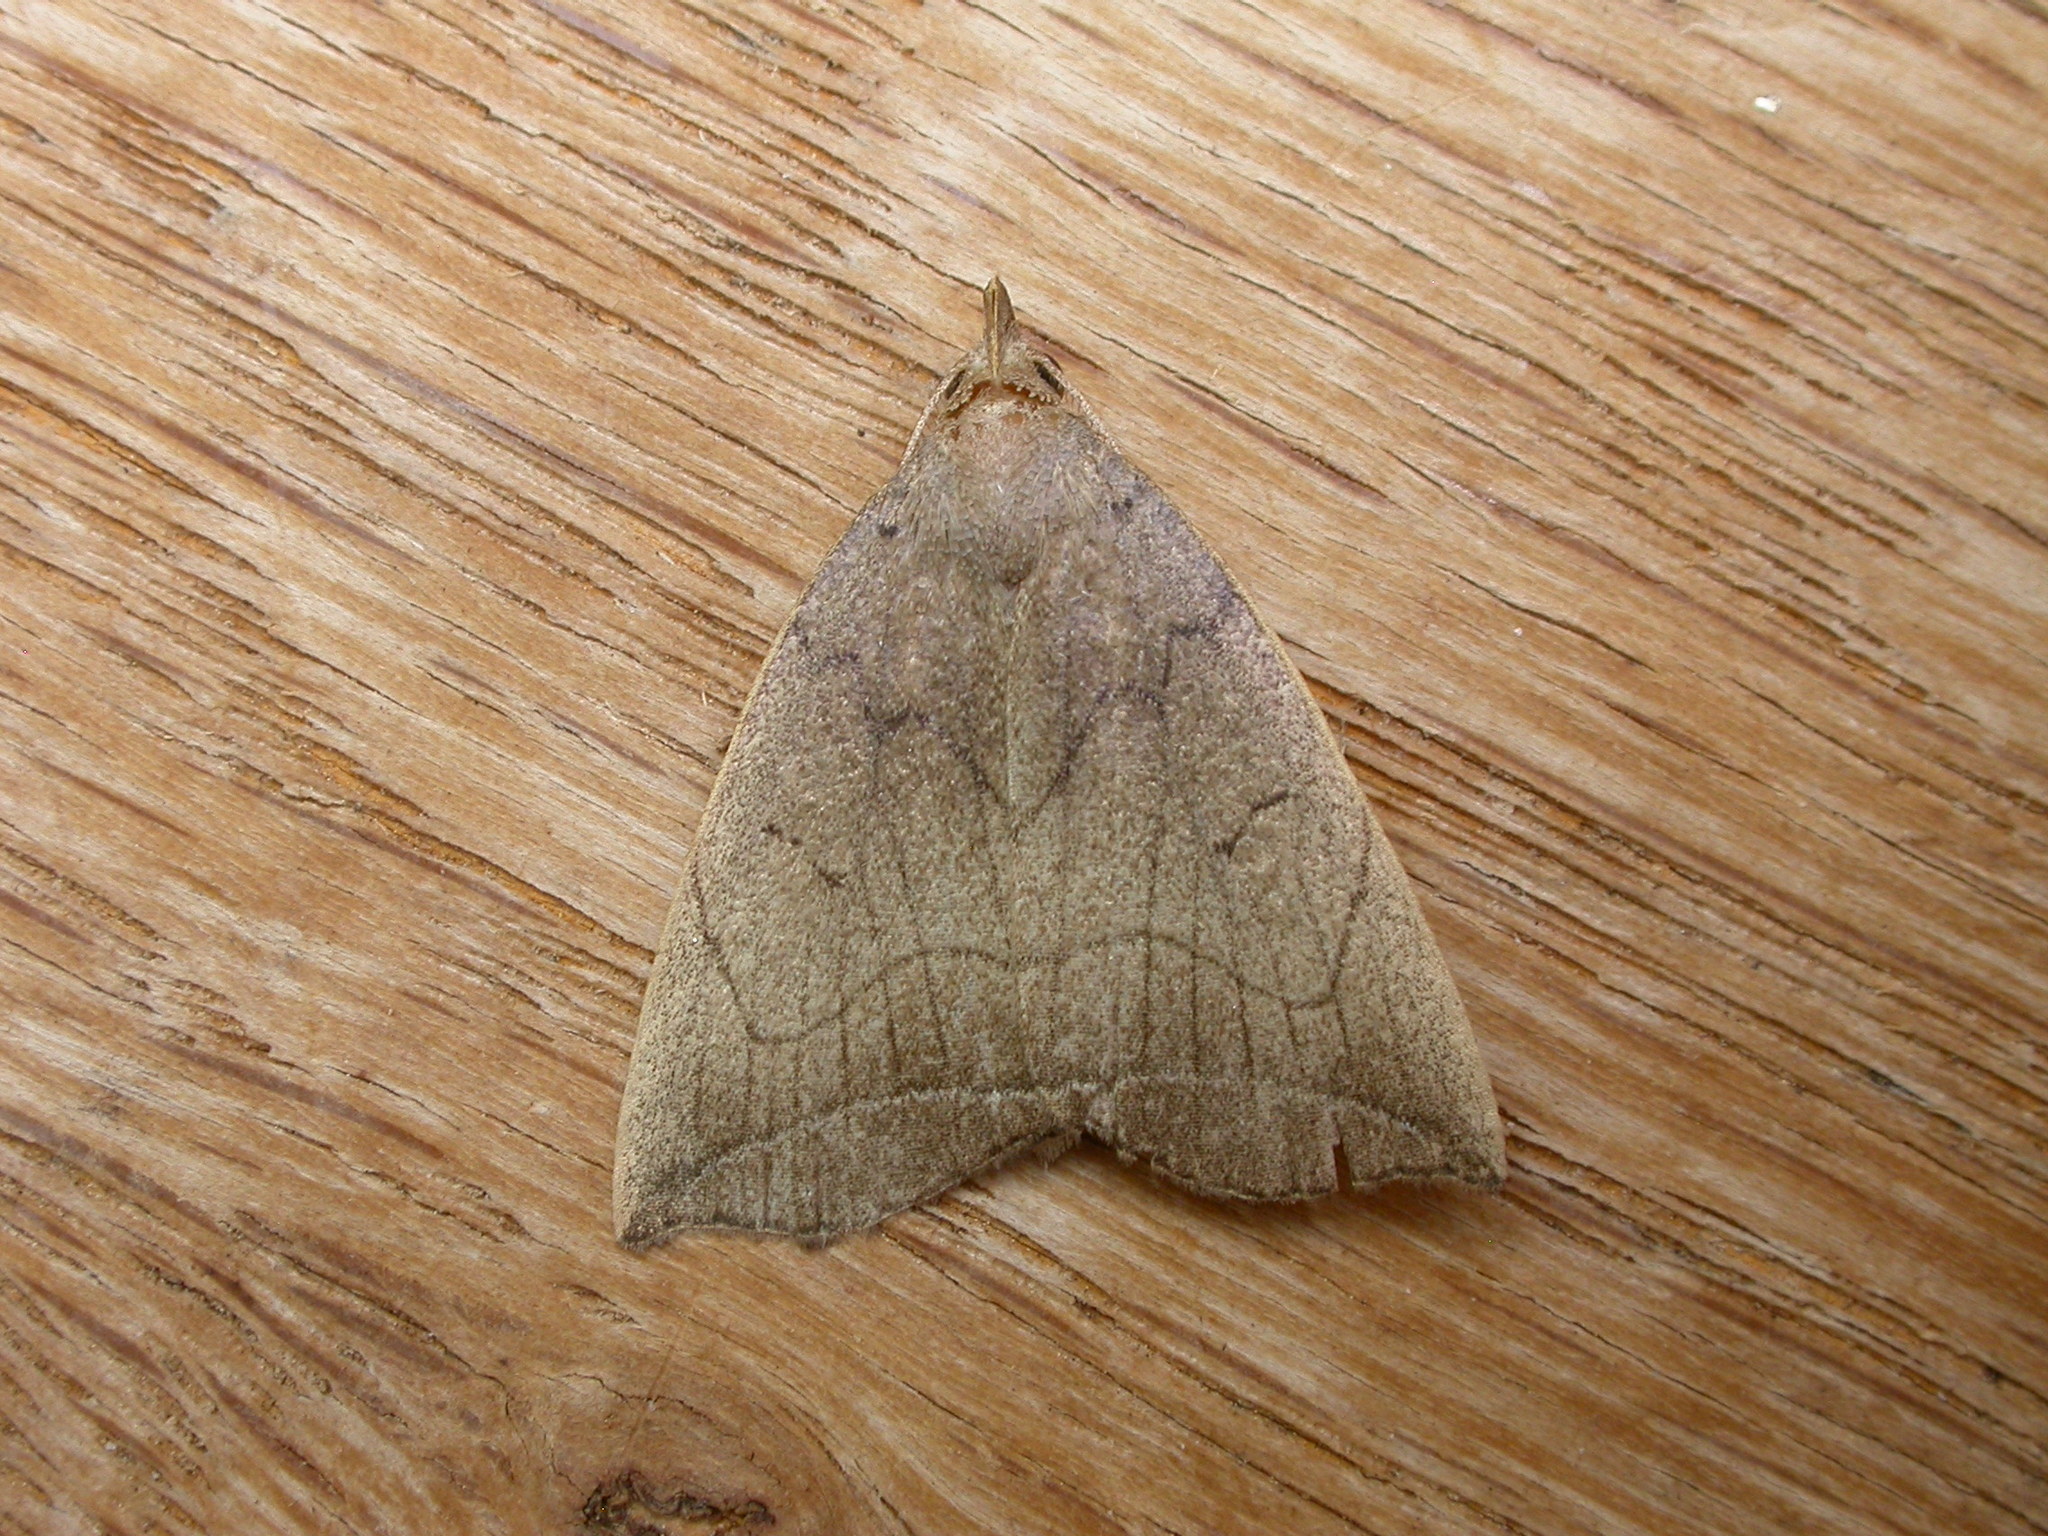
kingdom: Animalia
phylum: Arthropoda
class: Insecta
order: Lepidoptera
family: Erebidae
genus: Simplicia
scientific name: Simplicia armatalis
